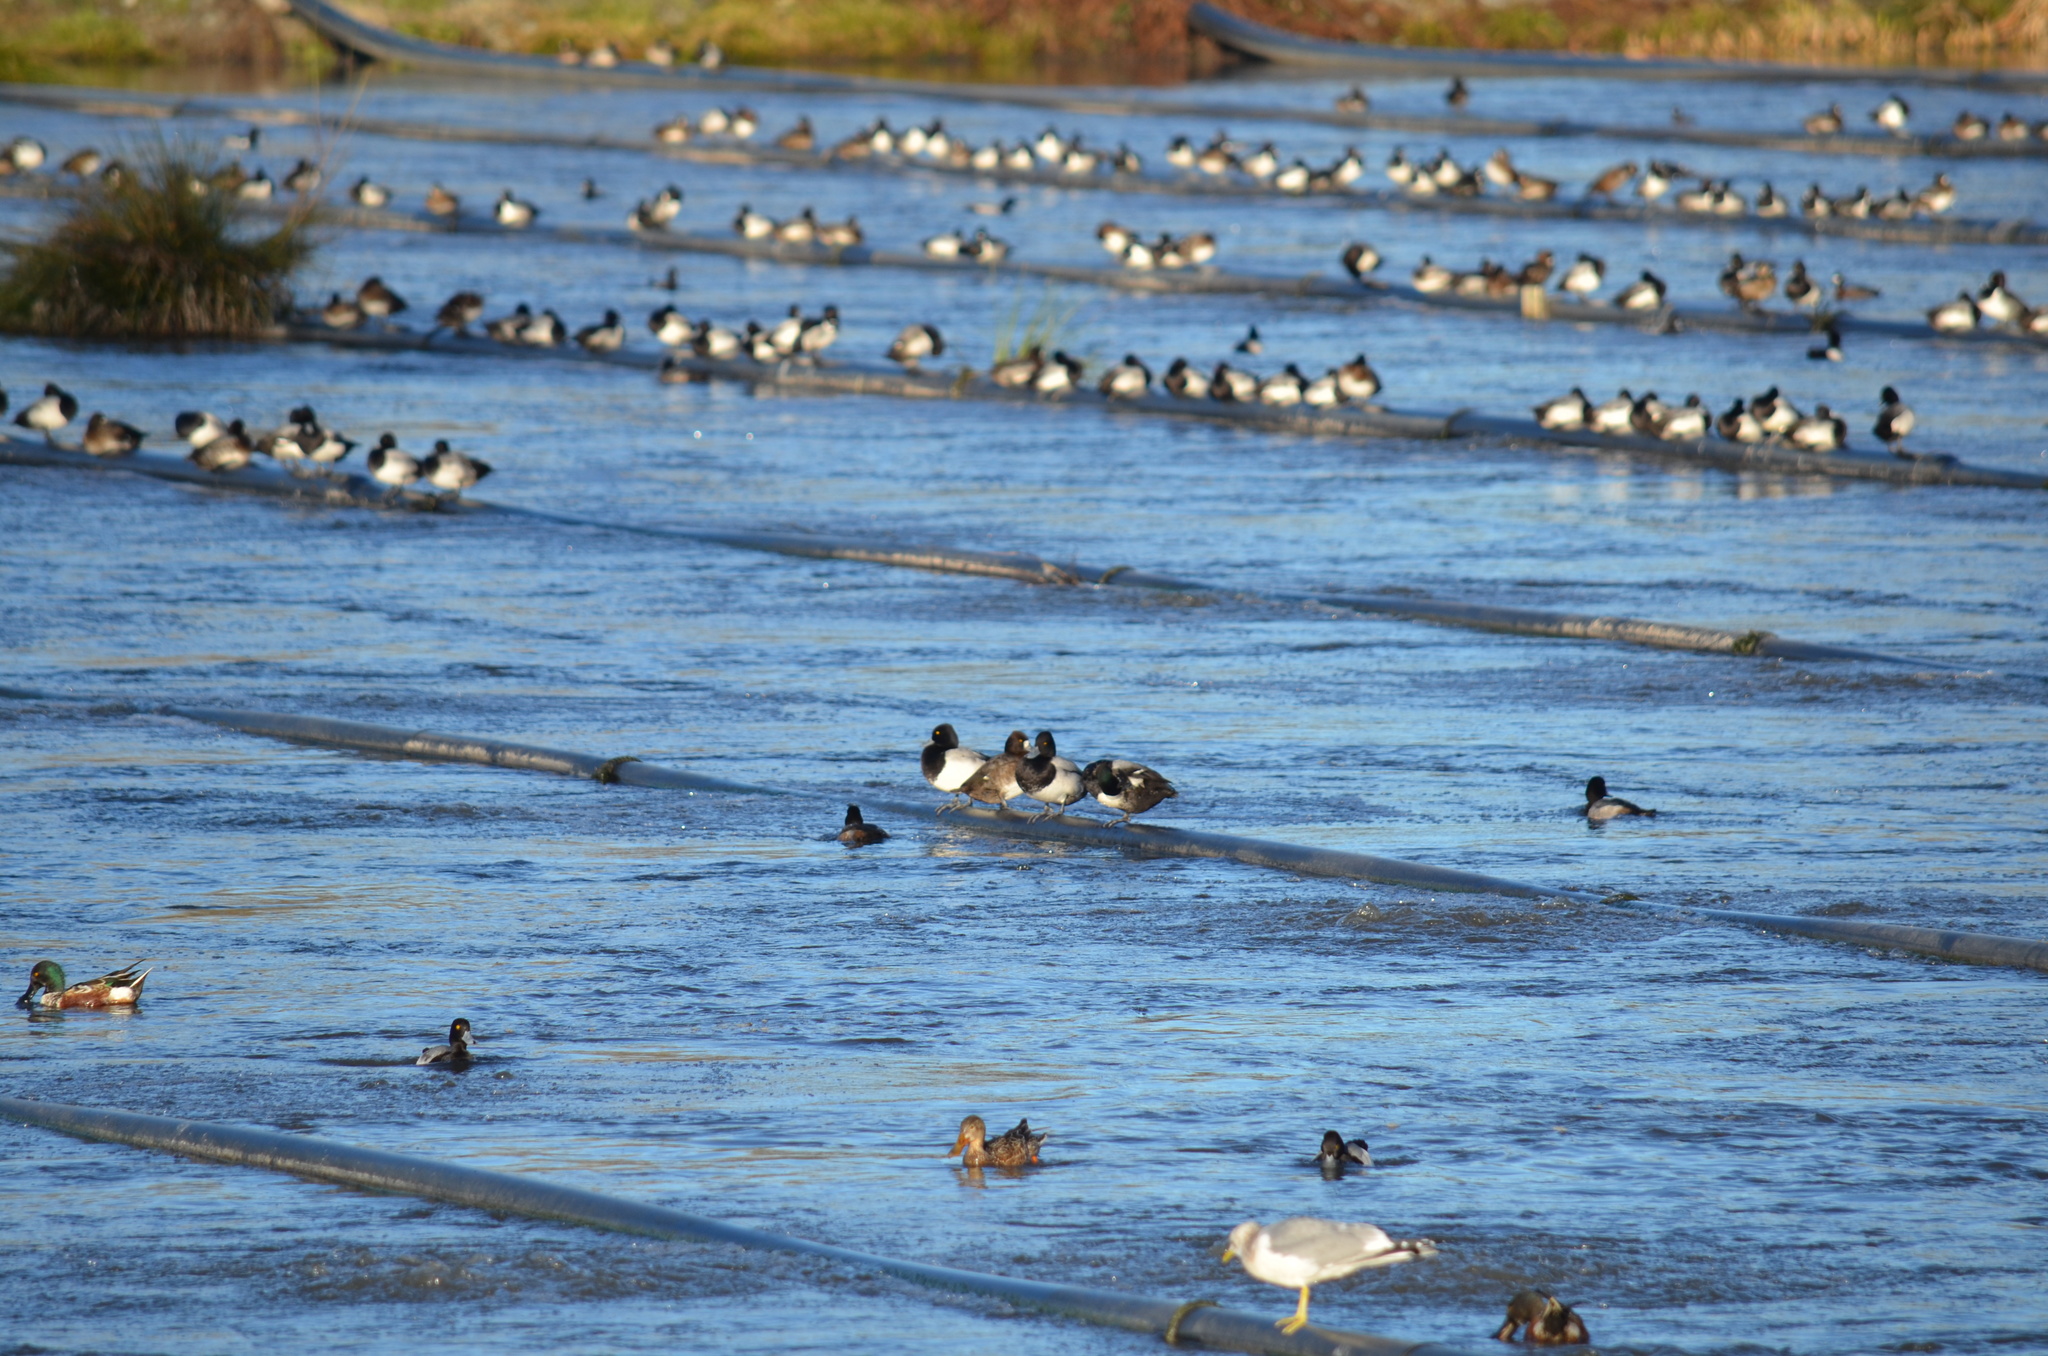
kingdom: Animalia
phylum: Chordata
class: Aves
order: Anseriformes
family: Anatidae
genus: Aythya
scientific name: Aythya affinis
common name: Lesser scaup
